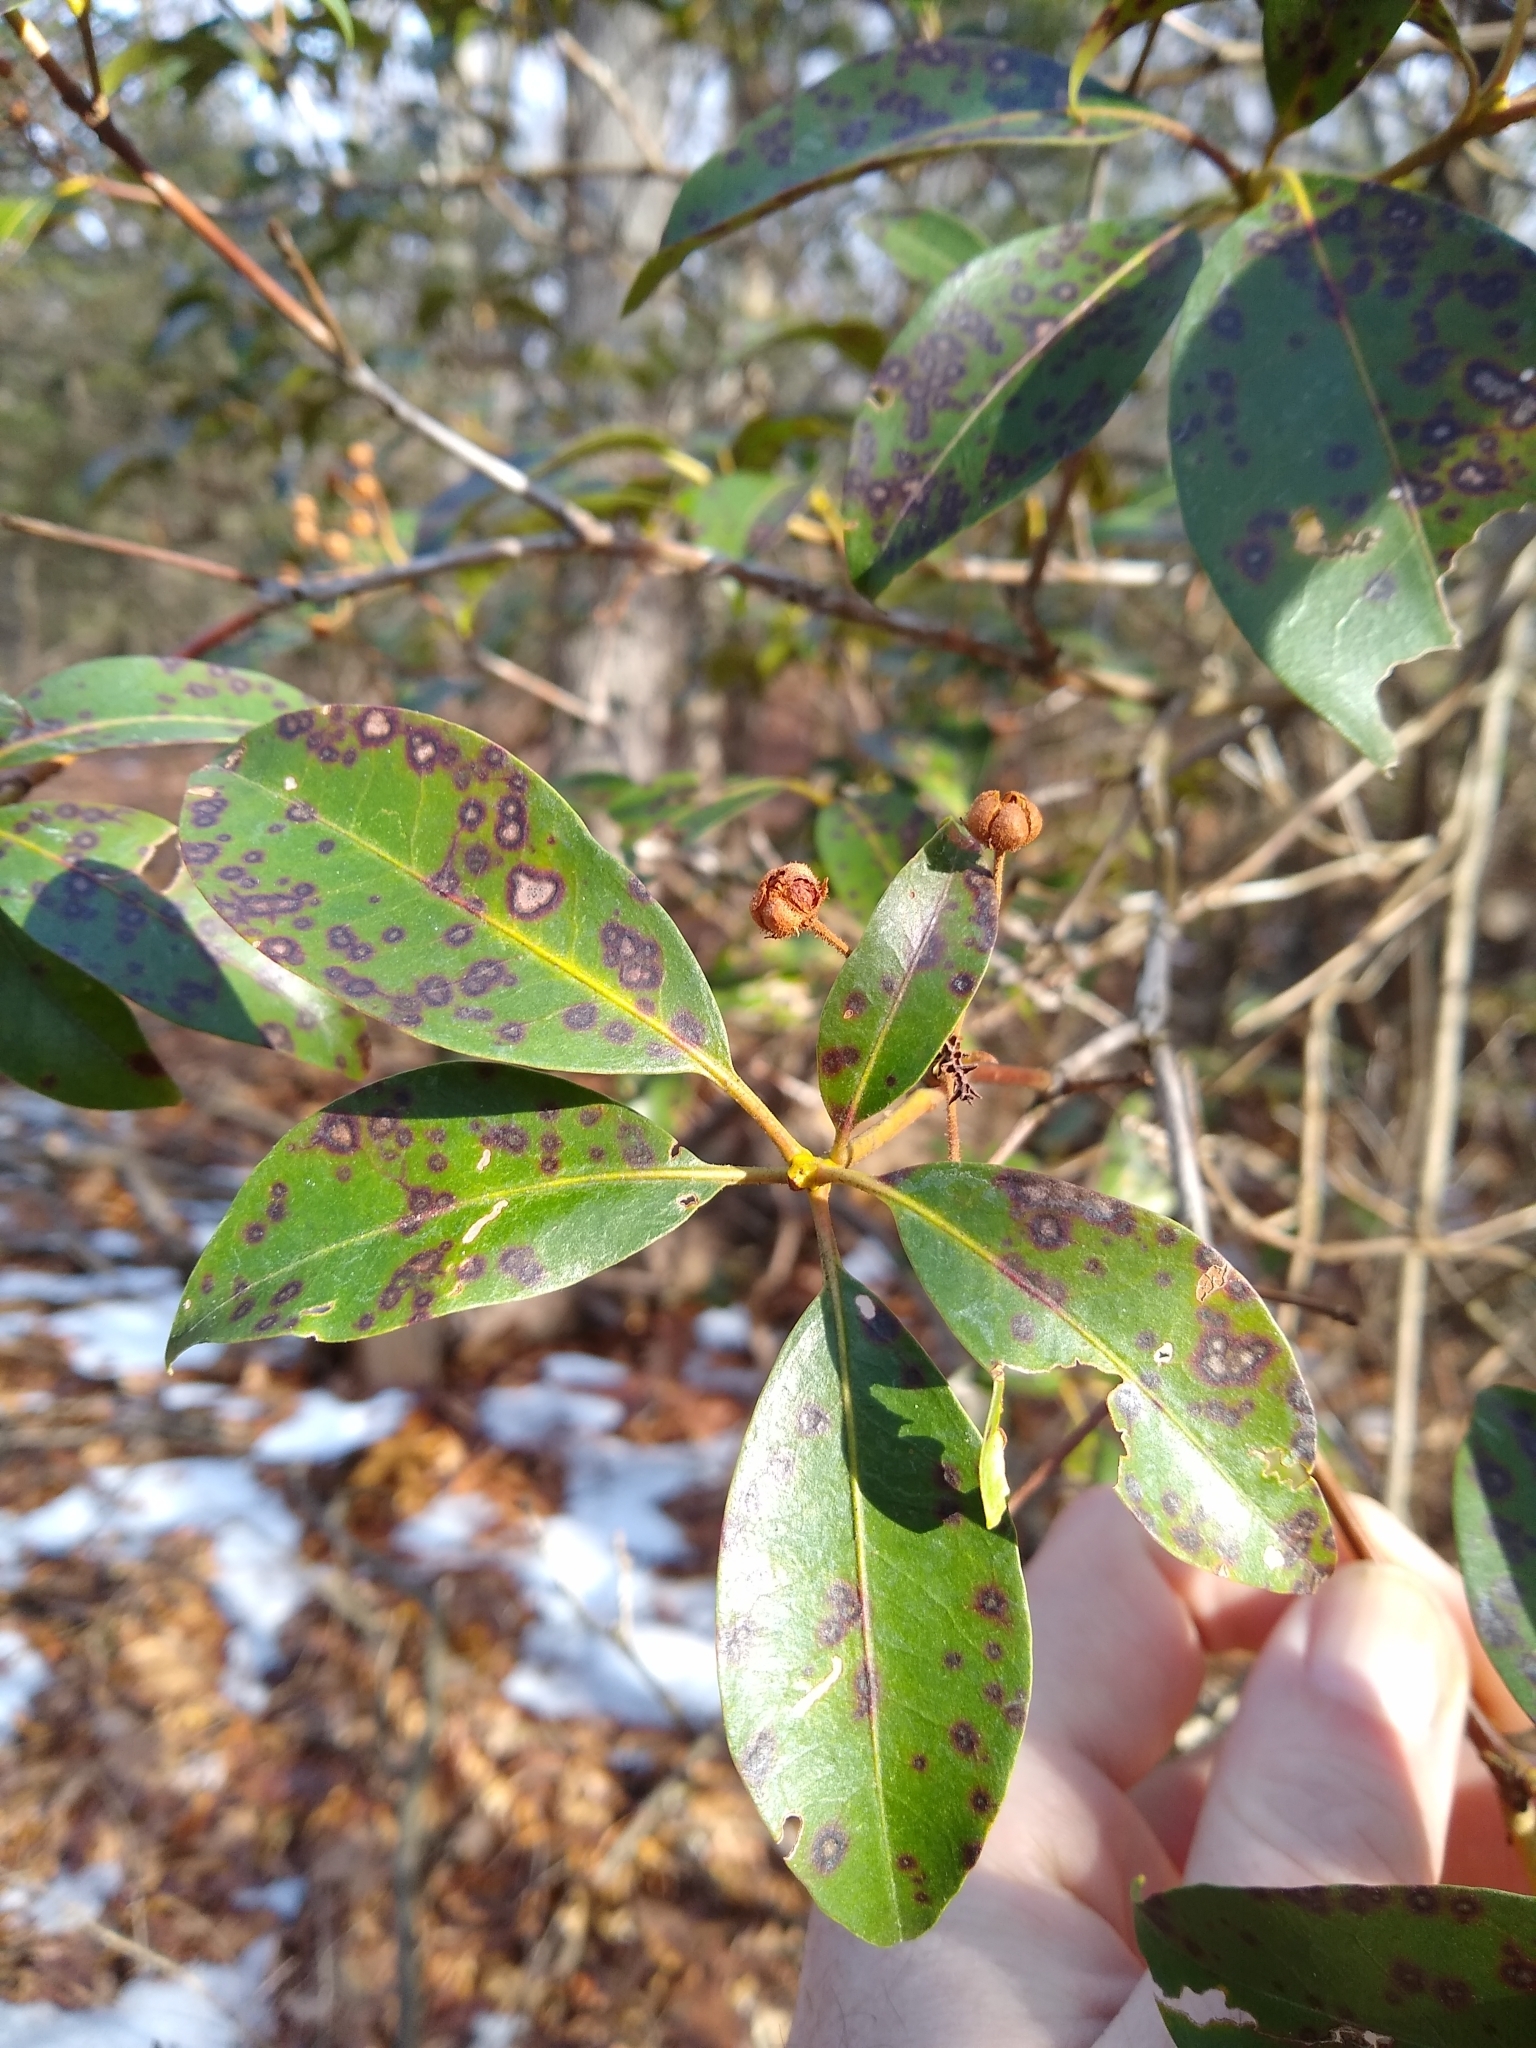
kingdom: Plantae
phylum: Tracheophyta
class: Magnoliopsida
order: Ericales
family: Ericaceae
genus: Kalmia
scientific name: Kalmia latifolia
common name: Mountain-laurel
